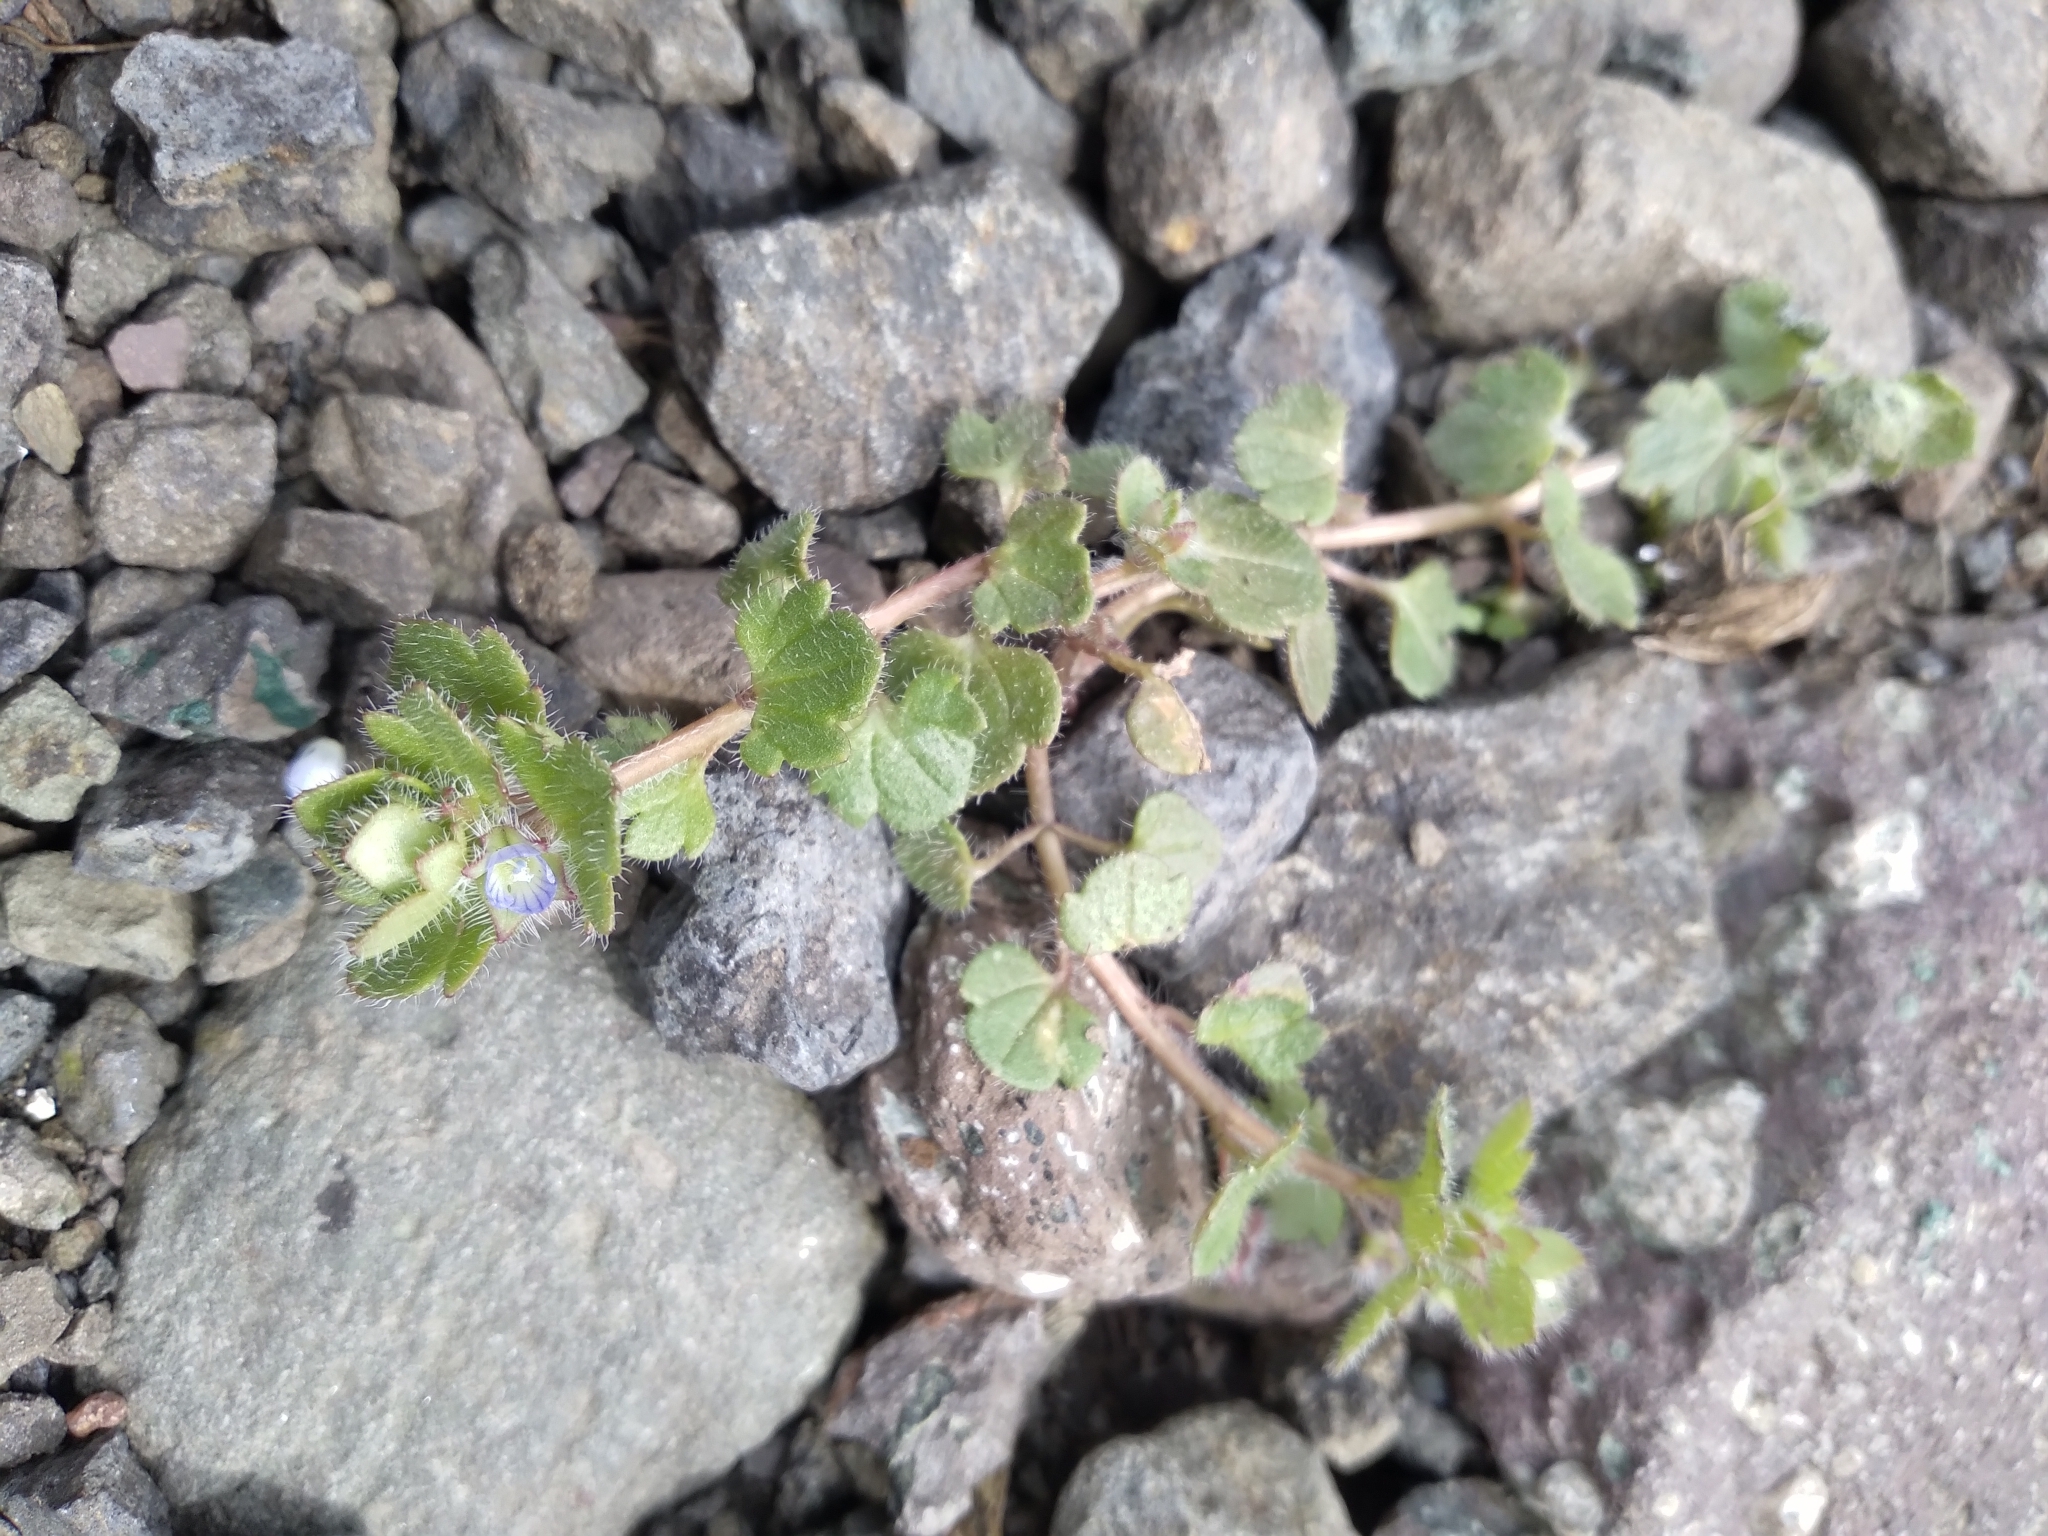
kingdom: Plantae
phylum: Tracheophyta
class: Magnoliopsida
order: Lamiales
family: Plantaginaceae
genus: Veronica
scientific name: Veronica hederifolia
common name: Ivy-leaved speedwell
